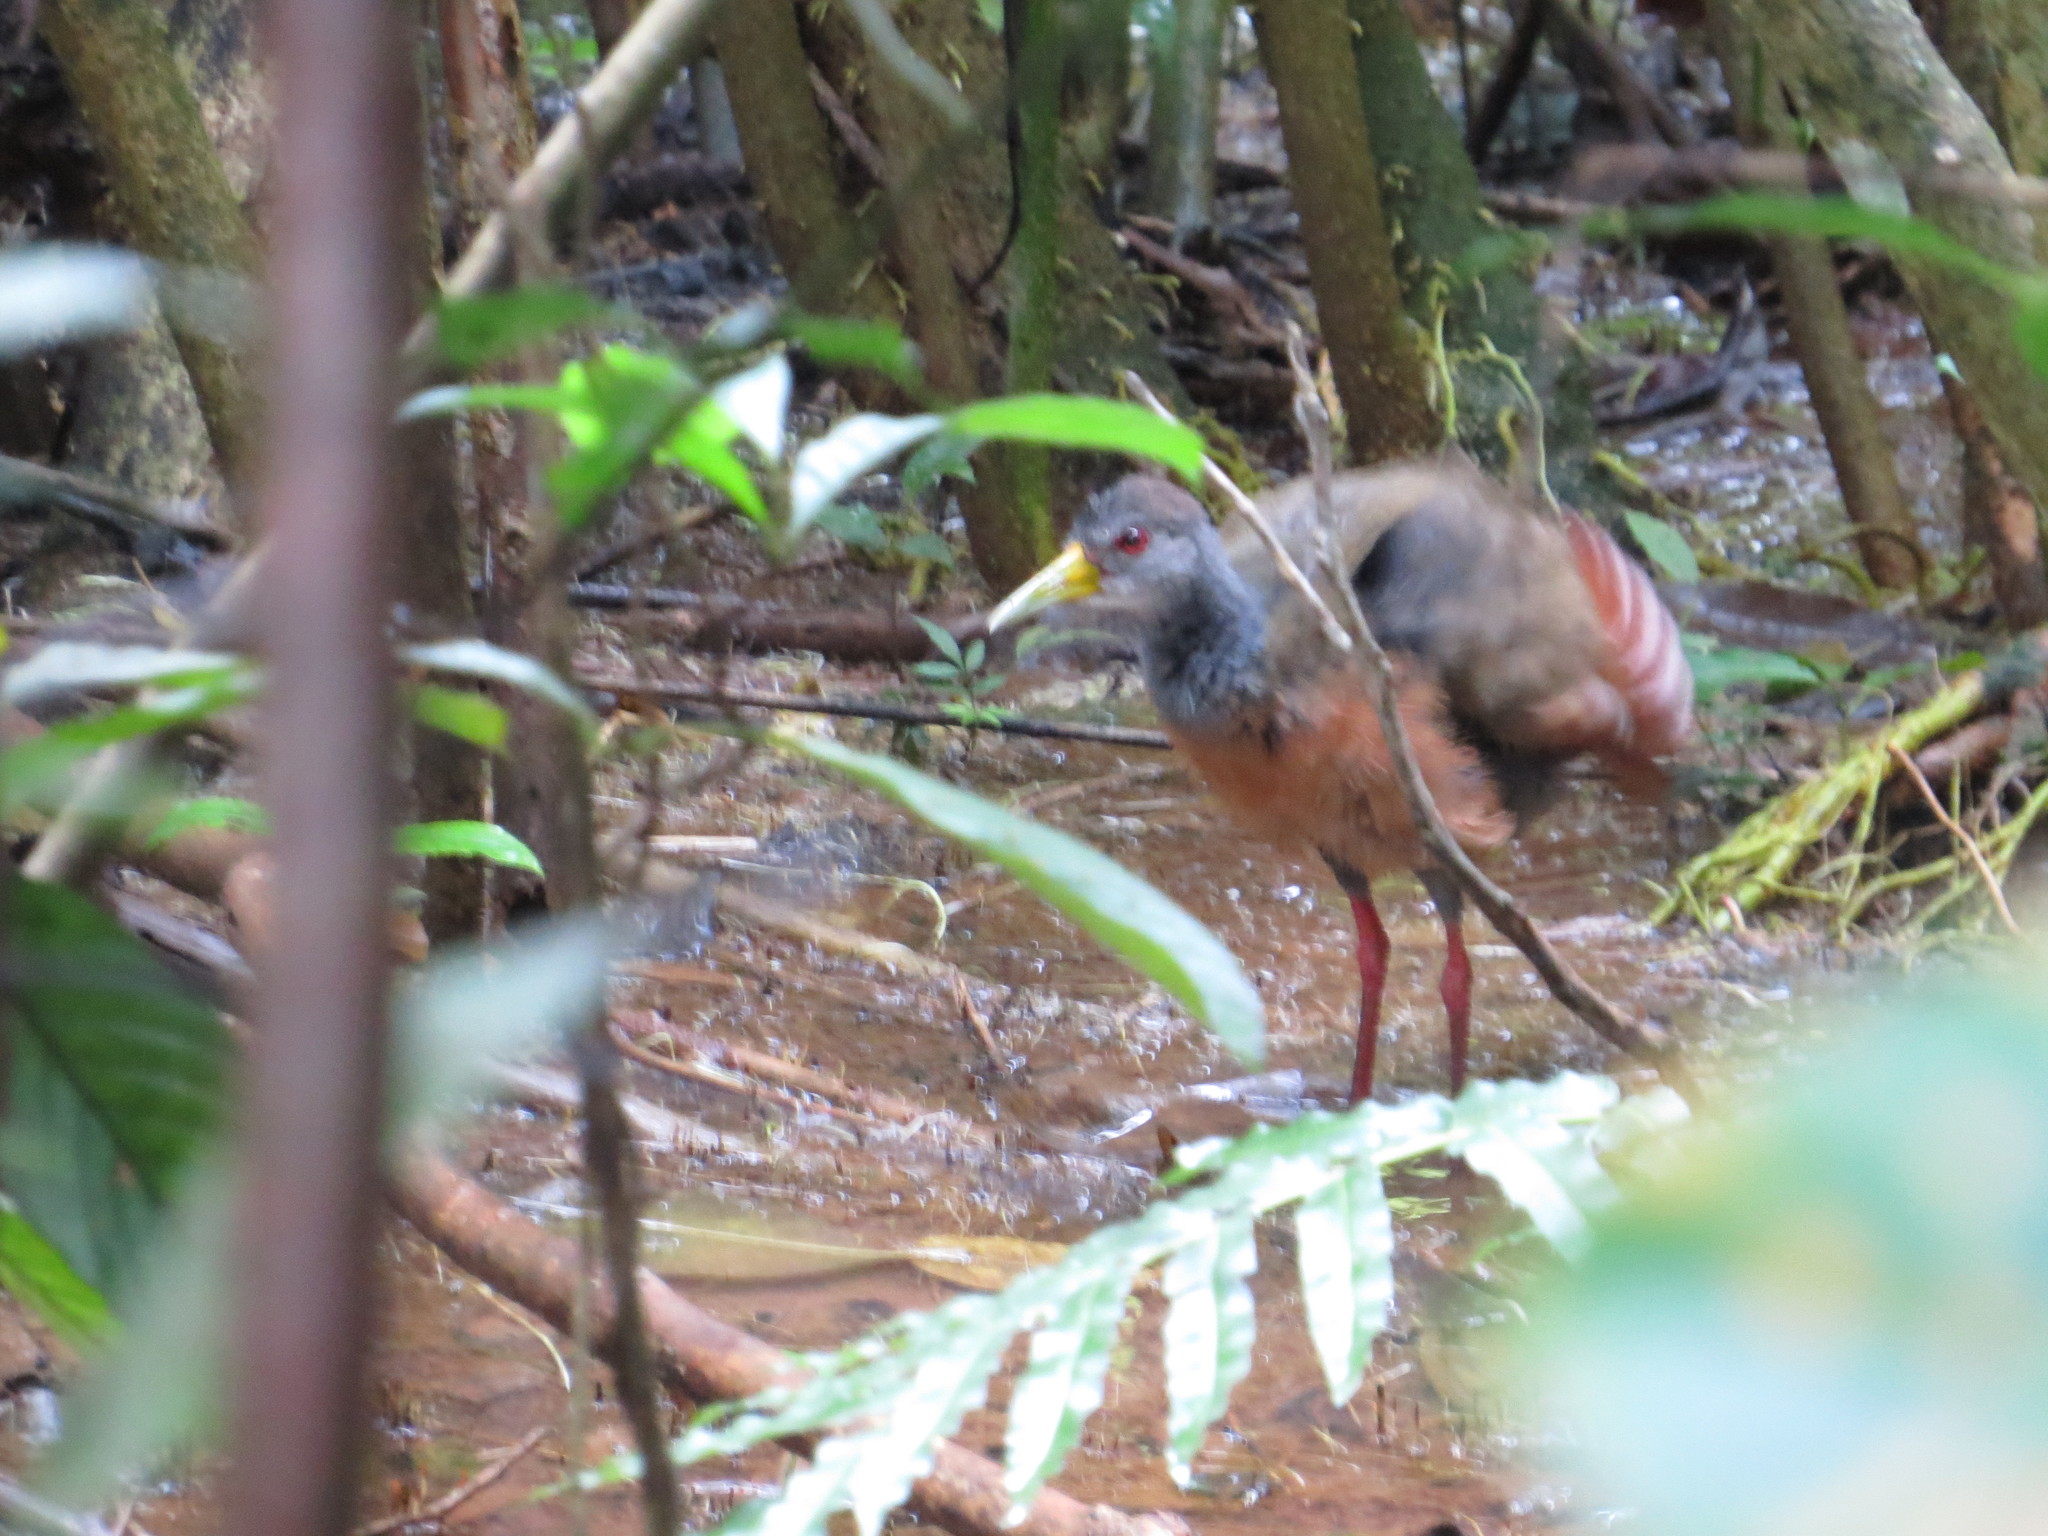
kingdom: Animalia
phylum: Chordata
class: Aves
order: Gruiformes
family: Rallidae
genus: Aramides
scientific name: Aramides cajanea
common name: Gray-necked wood-rail
